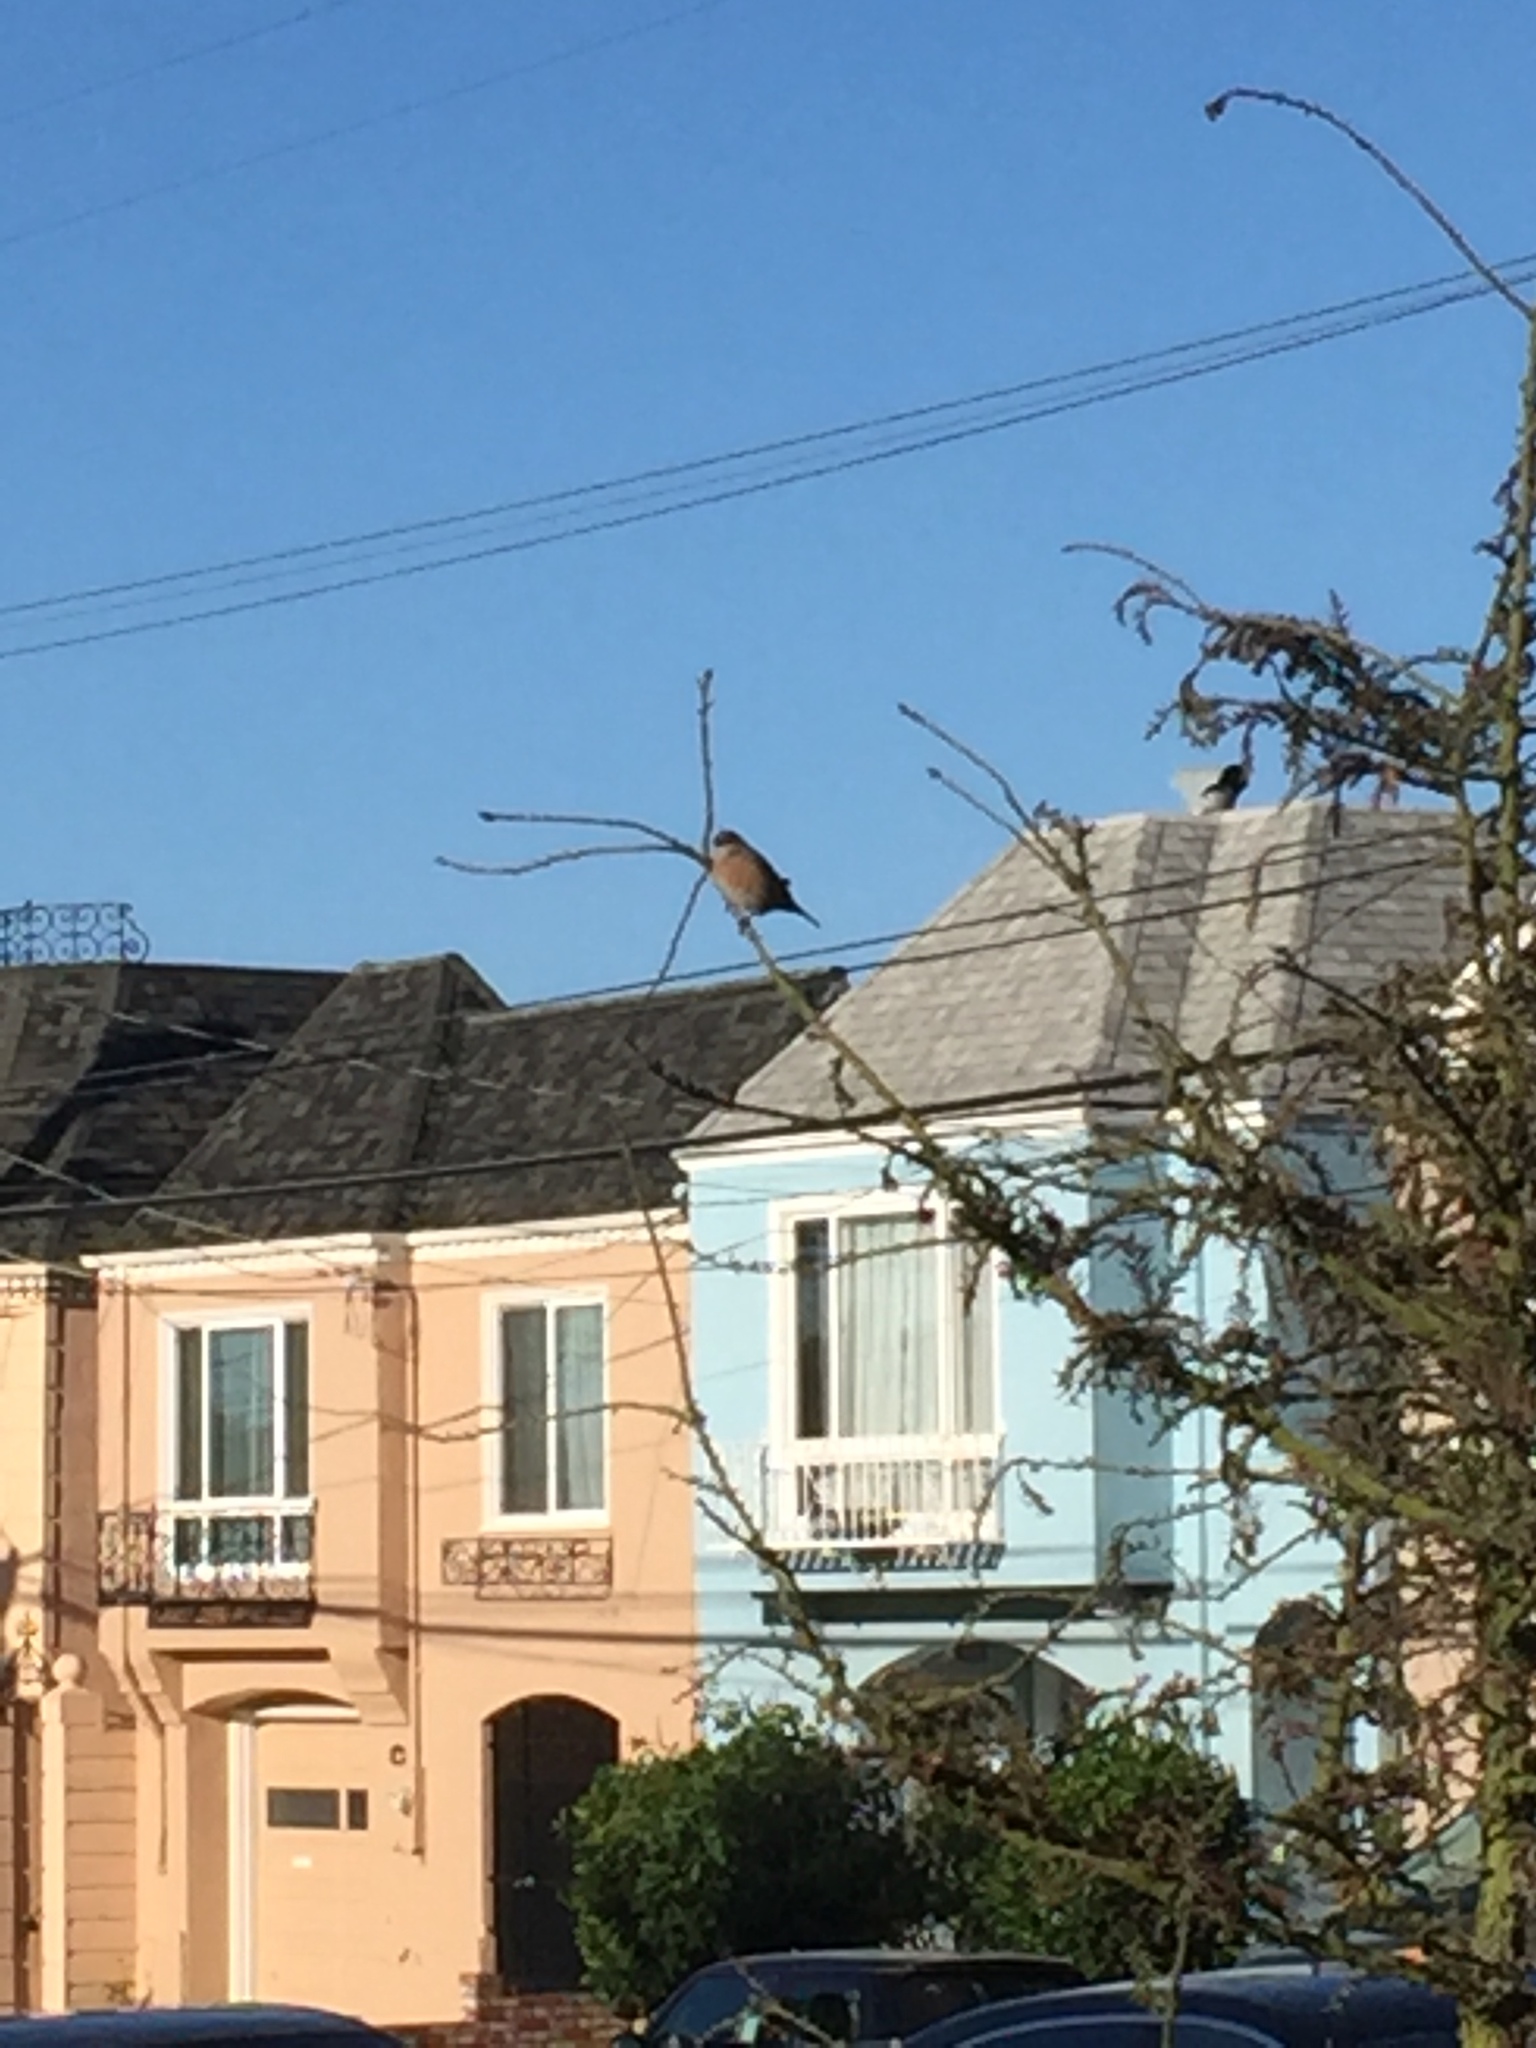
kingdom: Animalia
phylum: Chordata
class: Aves
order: Passeriformes
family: Turdidae
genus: Sialia
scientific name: Sialia mexicana
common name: Western bluebird
